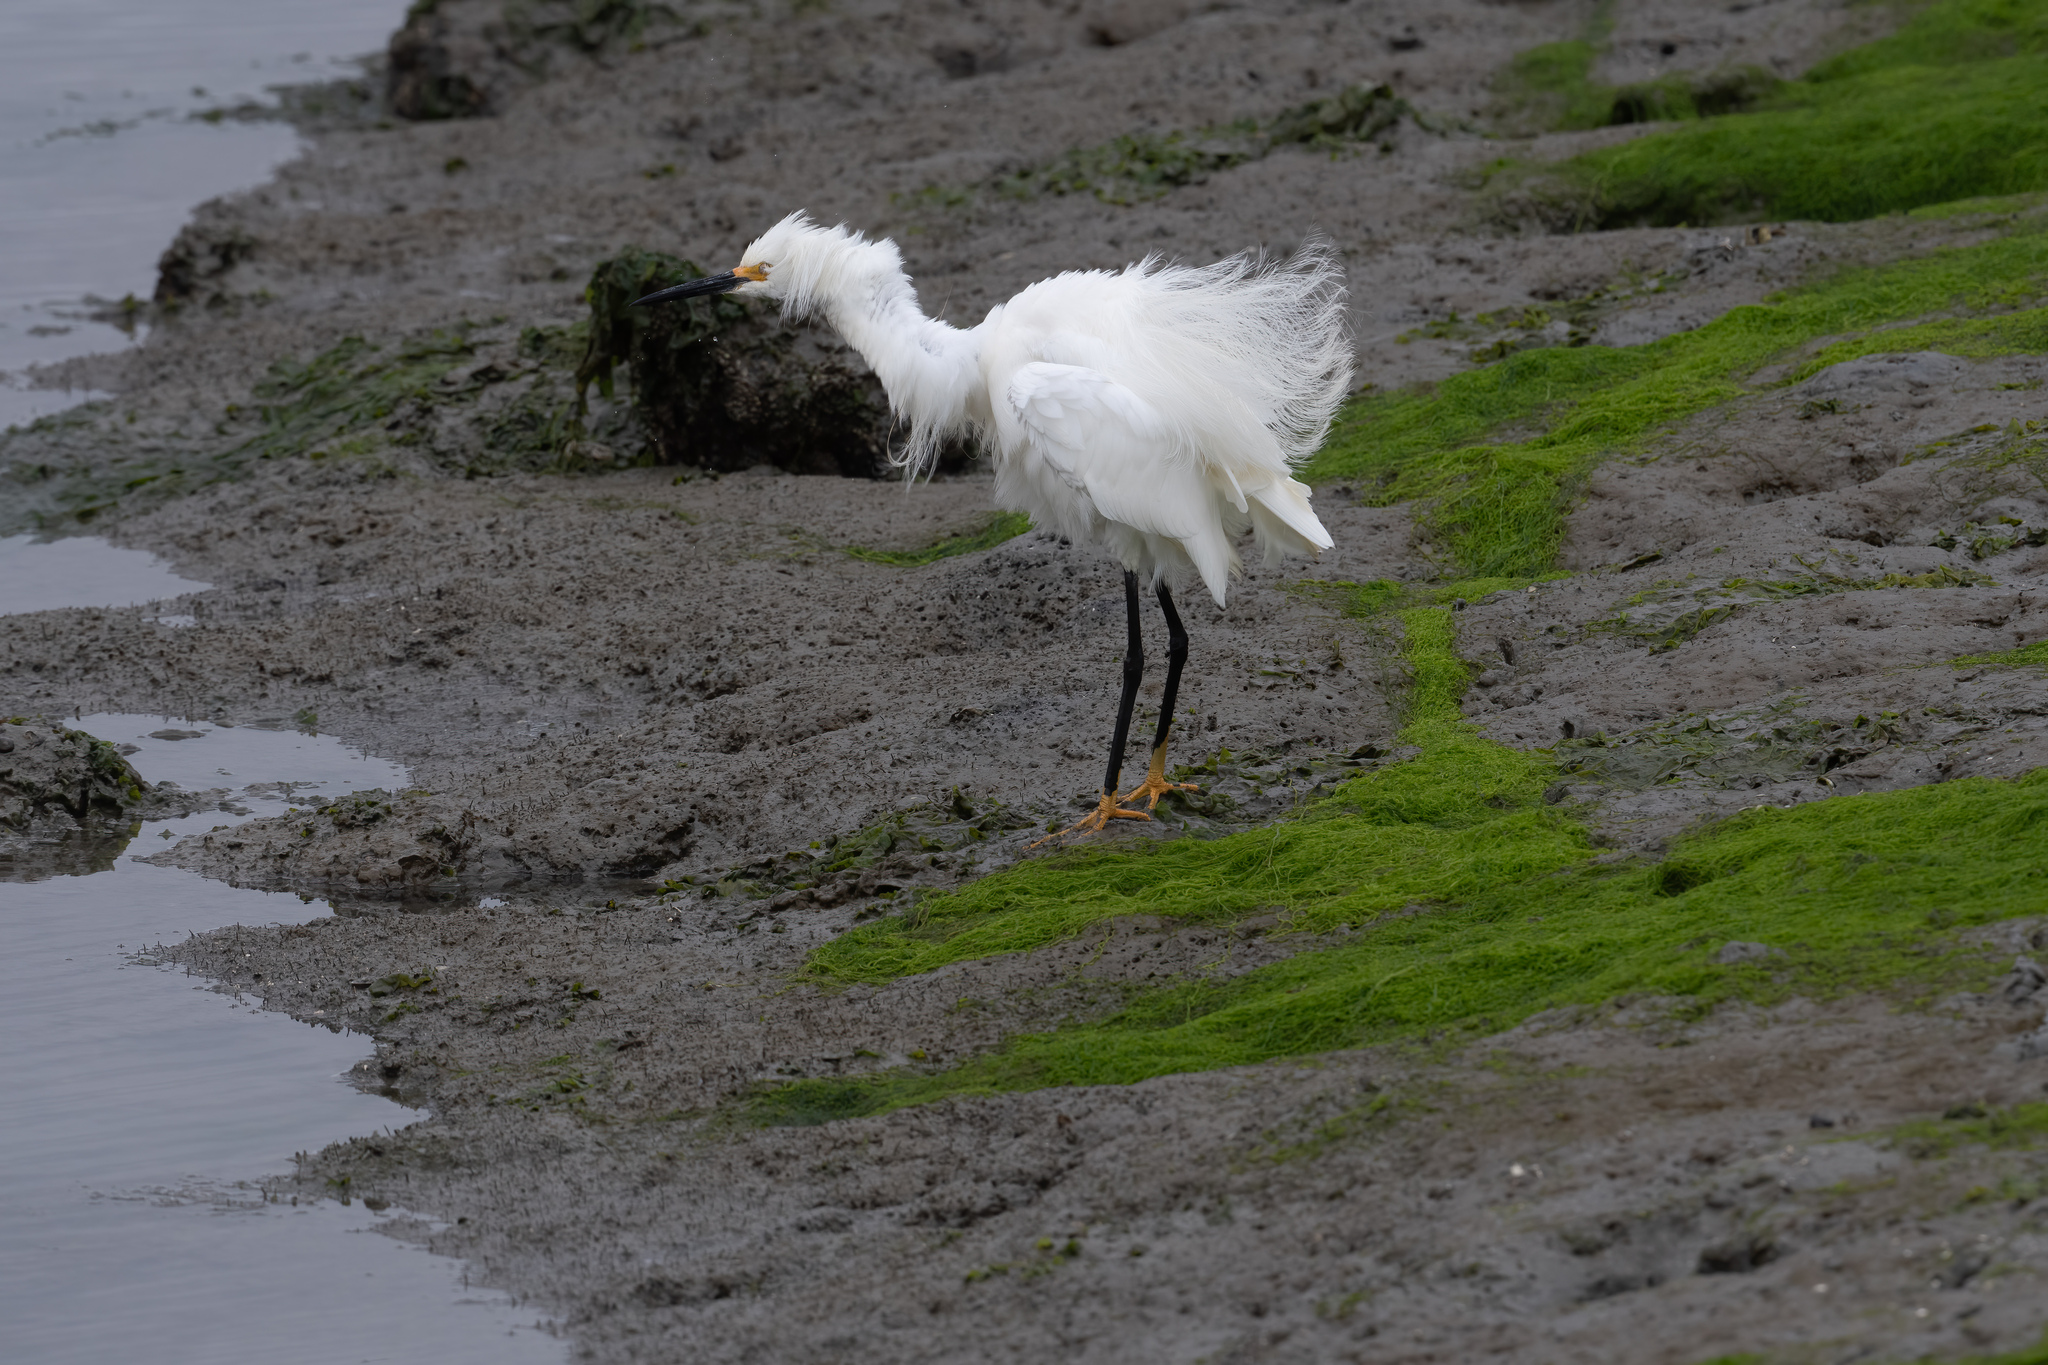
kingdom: Animalia
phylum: Chordata
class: Aves
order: Pelecaniformes
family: Ardeidae
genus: Egretta
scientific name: Egretta thula
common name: Snowy egret
